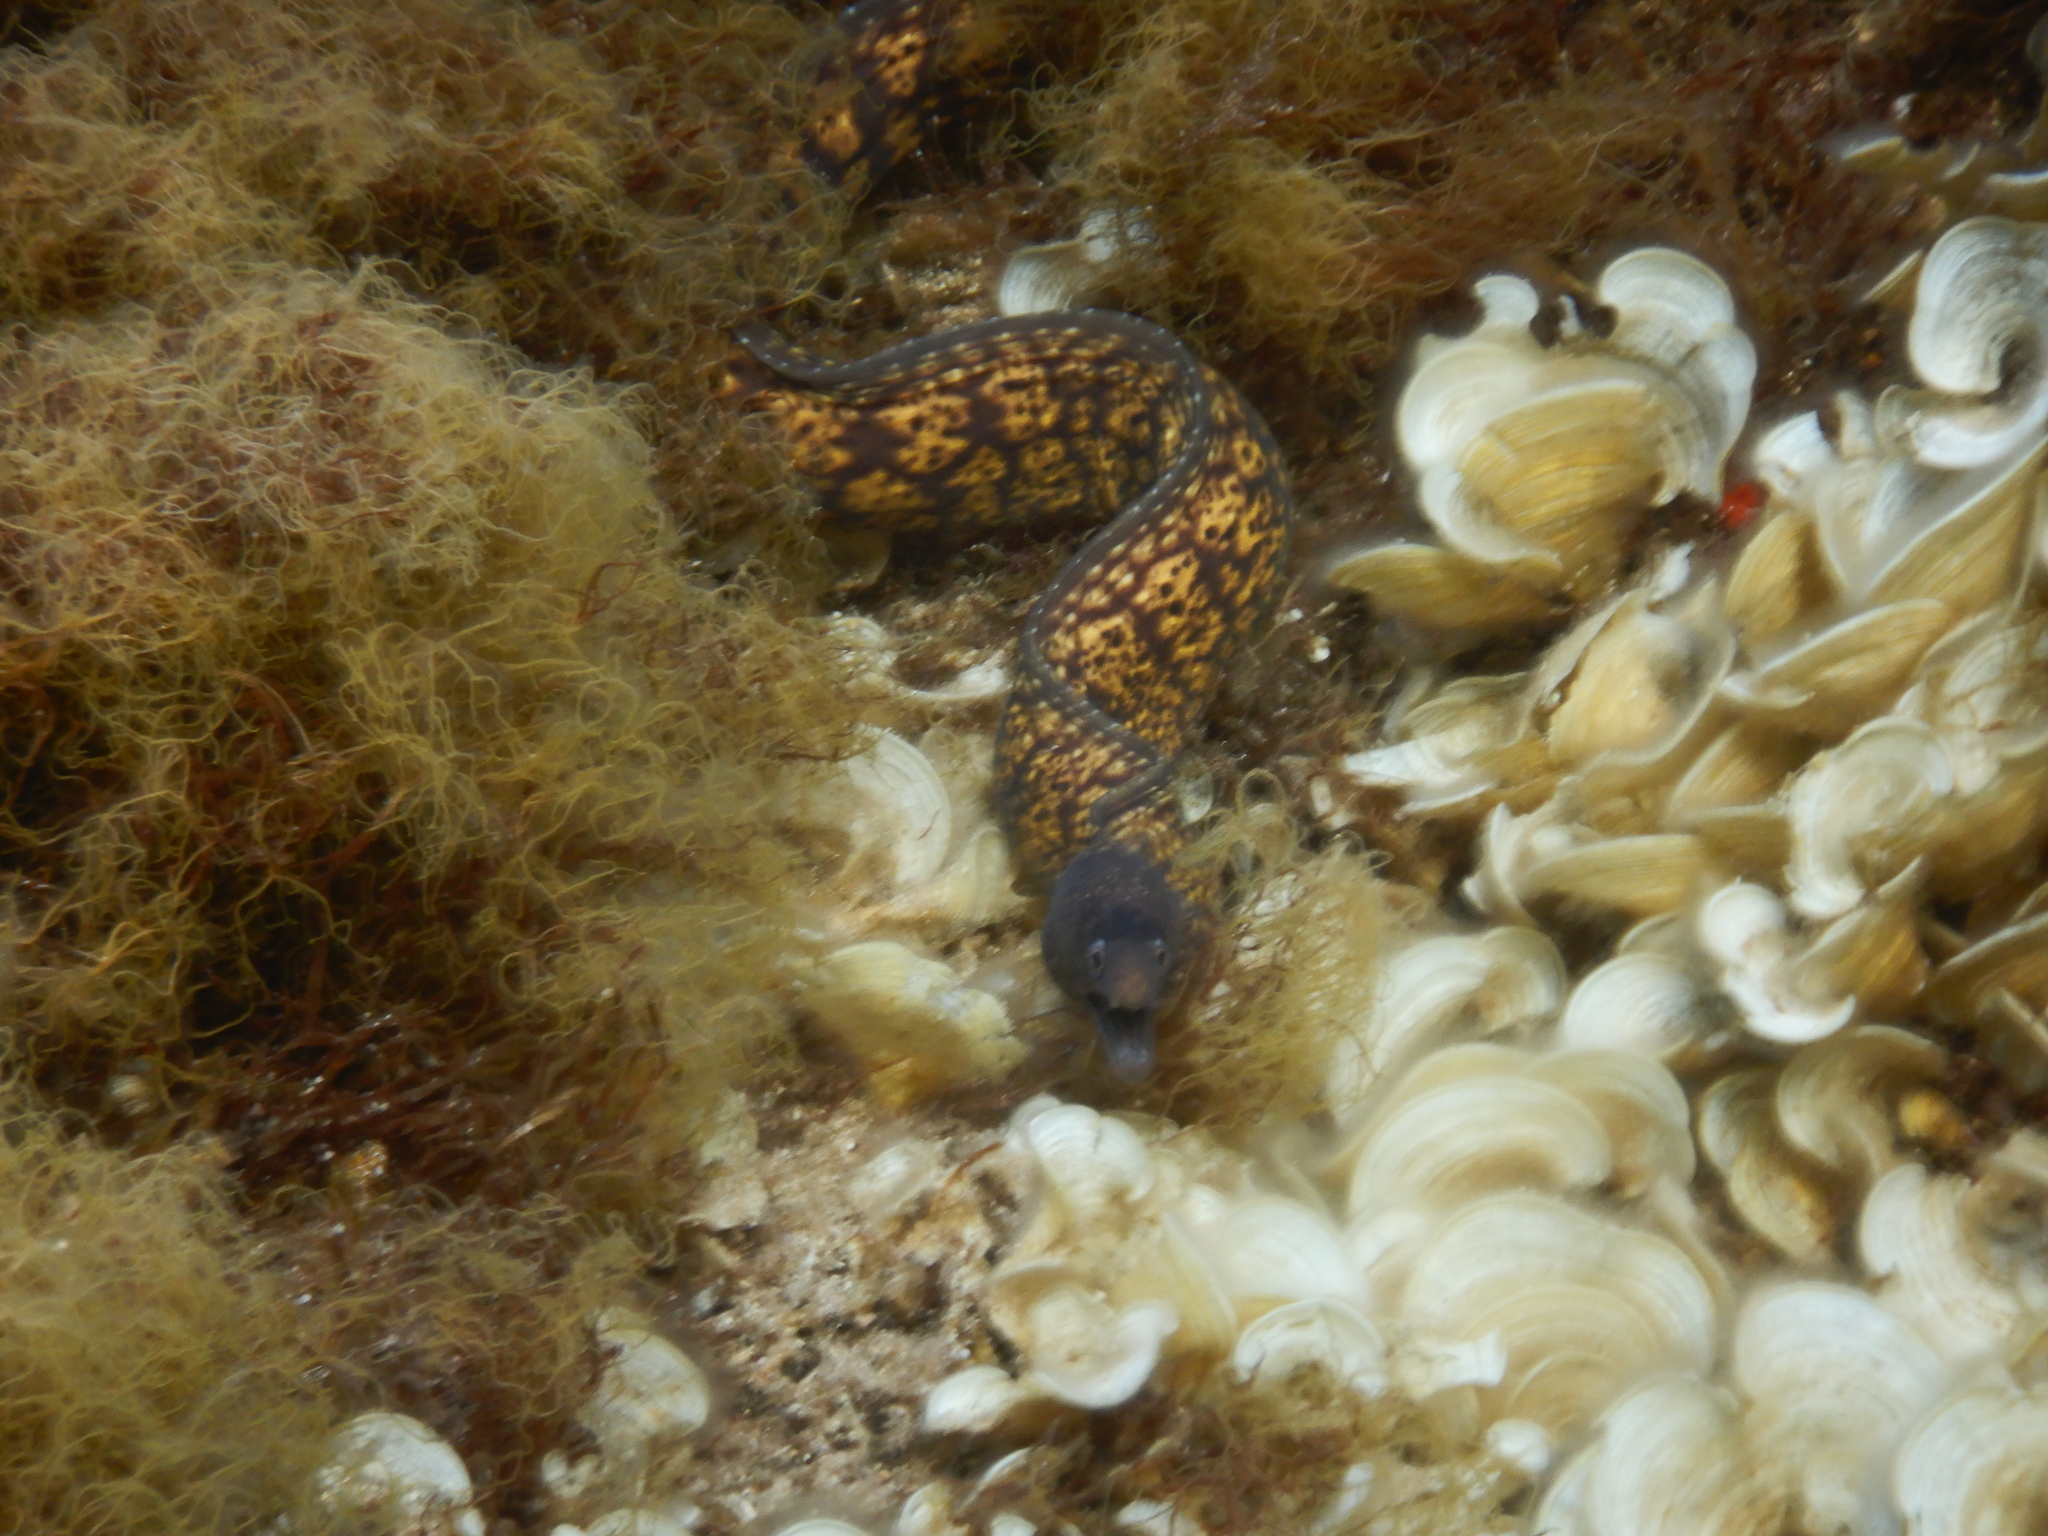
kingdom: Animalia
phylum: Chordata
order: Anguilliformes
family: Muraenidae
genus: Muraena
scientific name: Muraena helena
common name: Mediterranean moray
